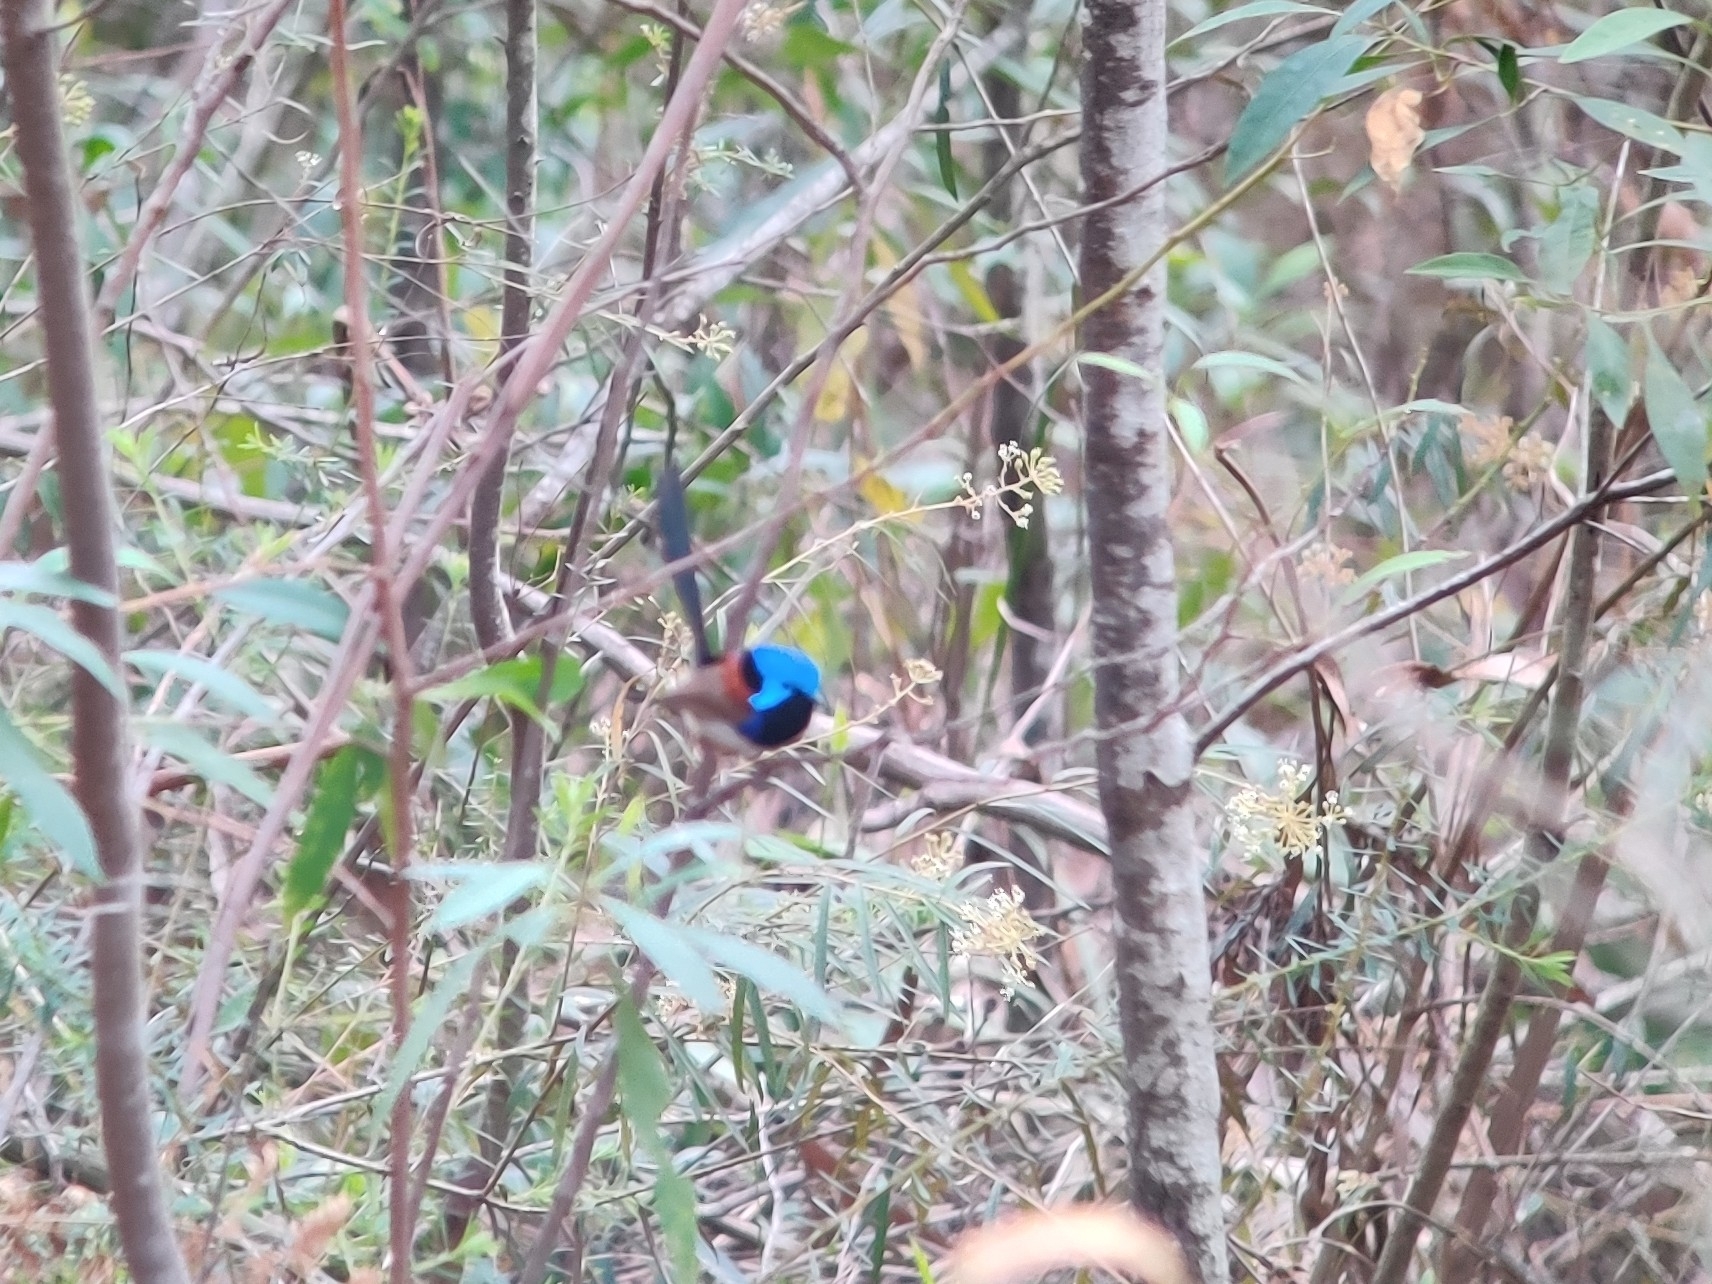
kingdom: Animalia
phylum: Chordata
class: Aves
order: Passeriformes
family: Maluridae
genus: Malurus
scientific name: Malurus lamberti
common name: Variegated fairywren
